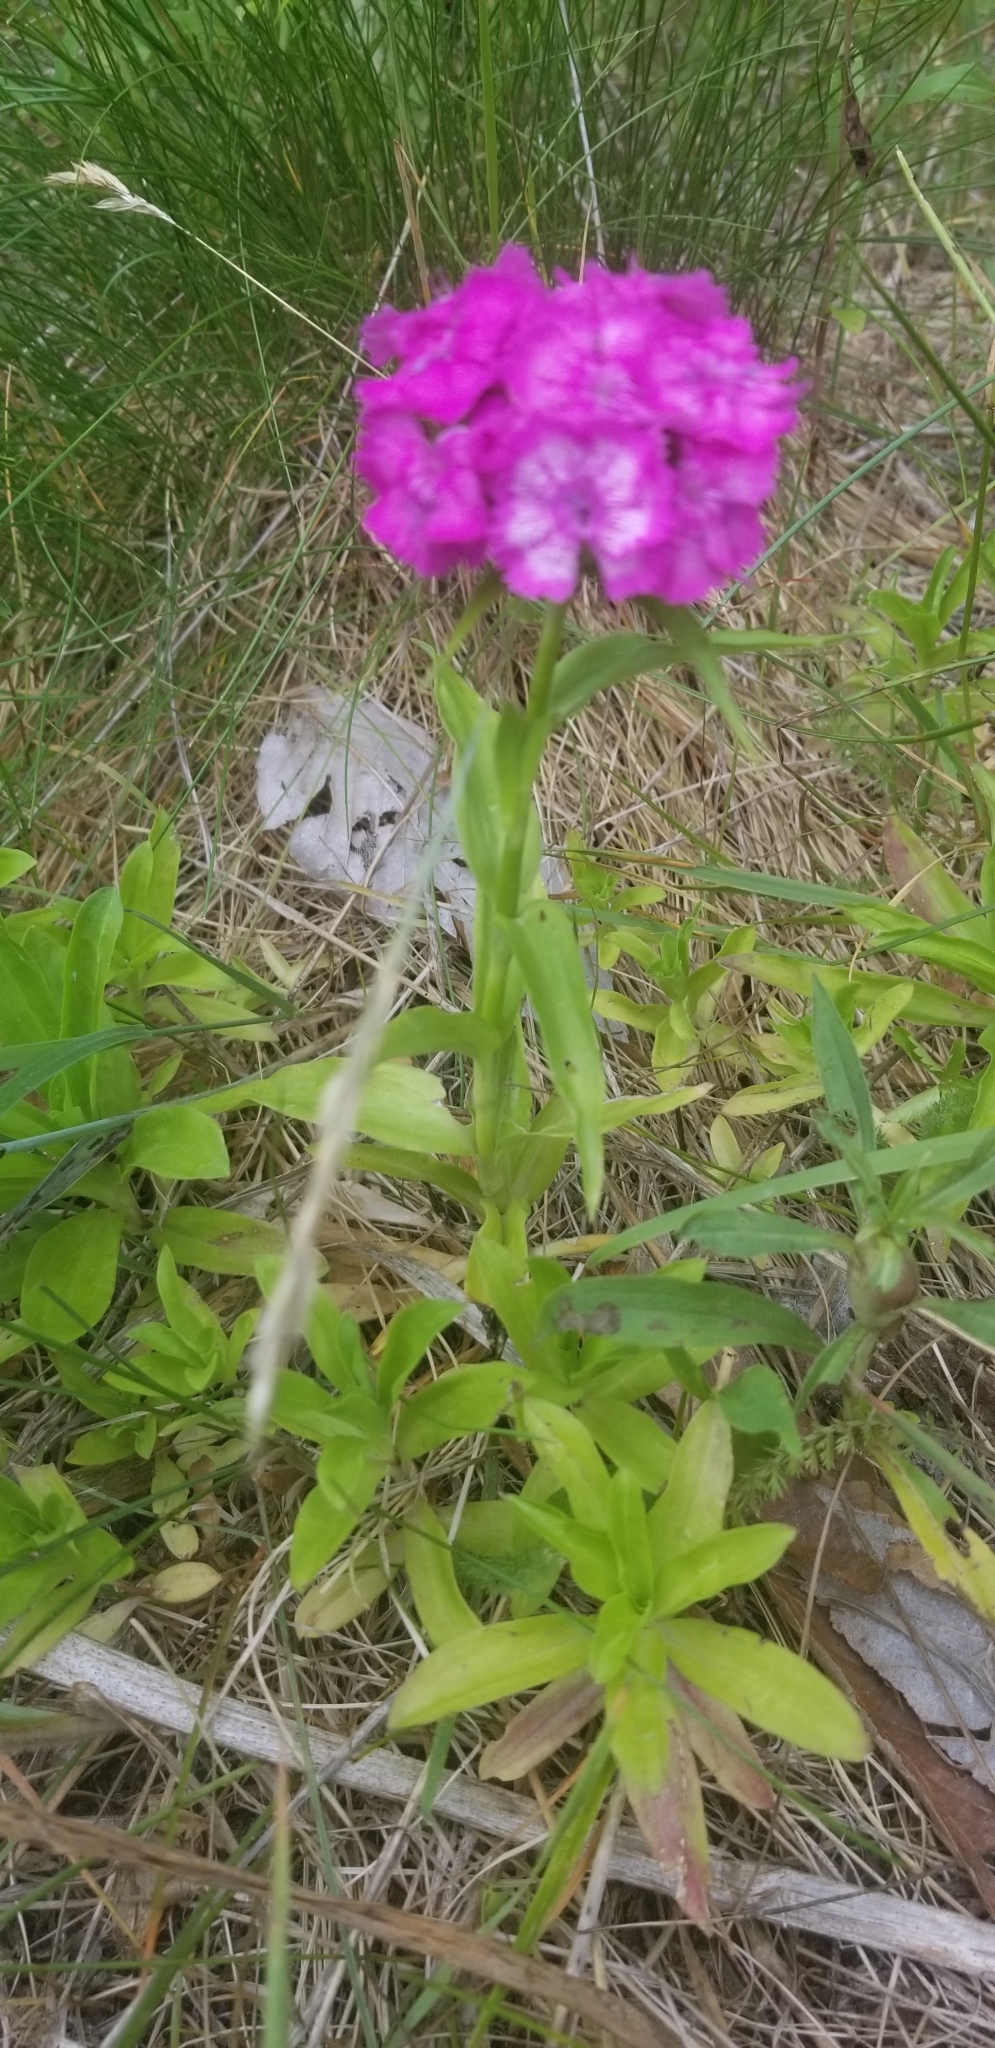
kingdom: Plantae
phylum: Tracheophyta
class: Magnoliopsida
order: Caryophyllales
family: Caryophyllaceae
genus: Dianthus
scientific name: Dianthus barbatus
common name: Sweet-william
